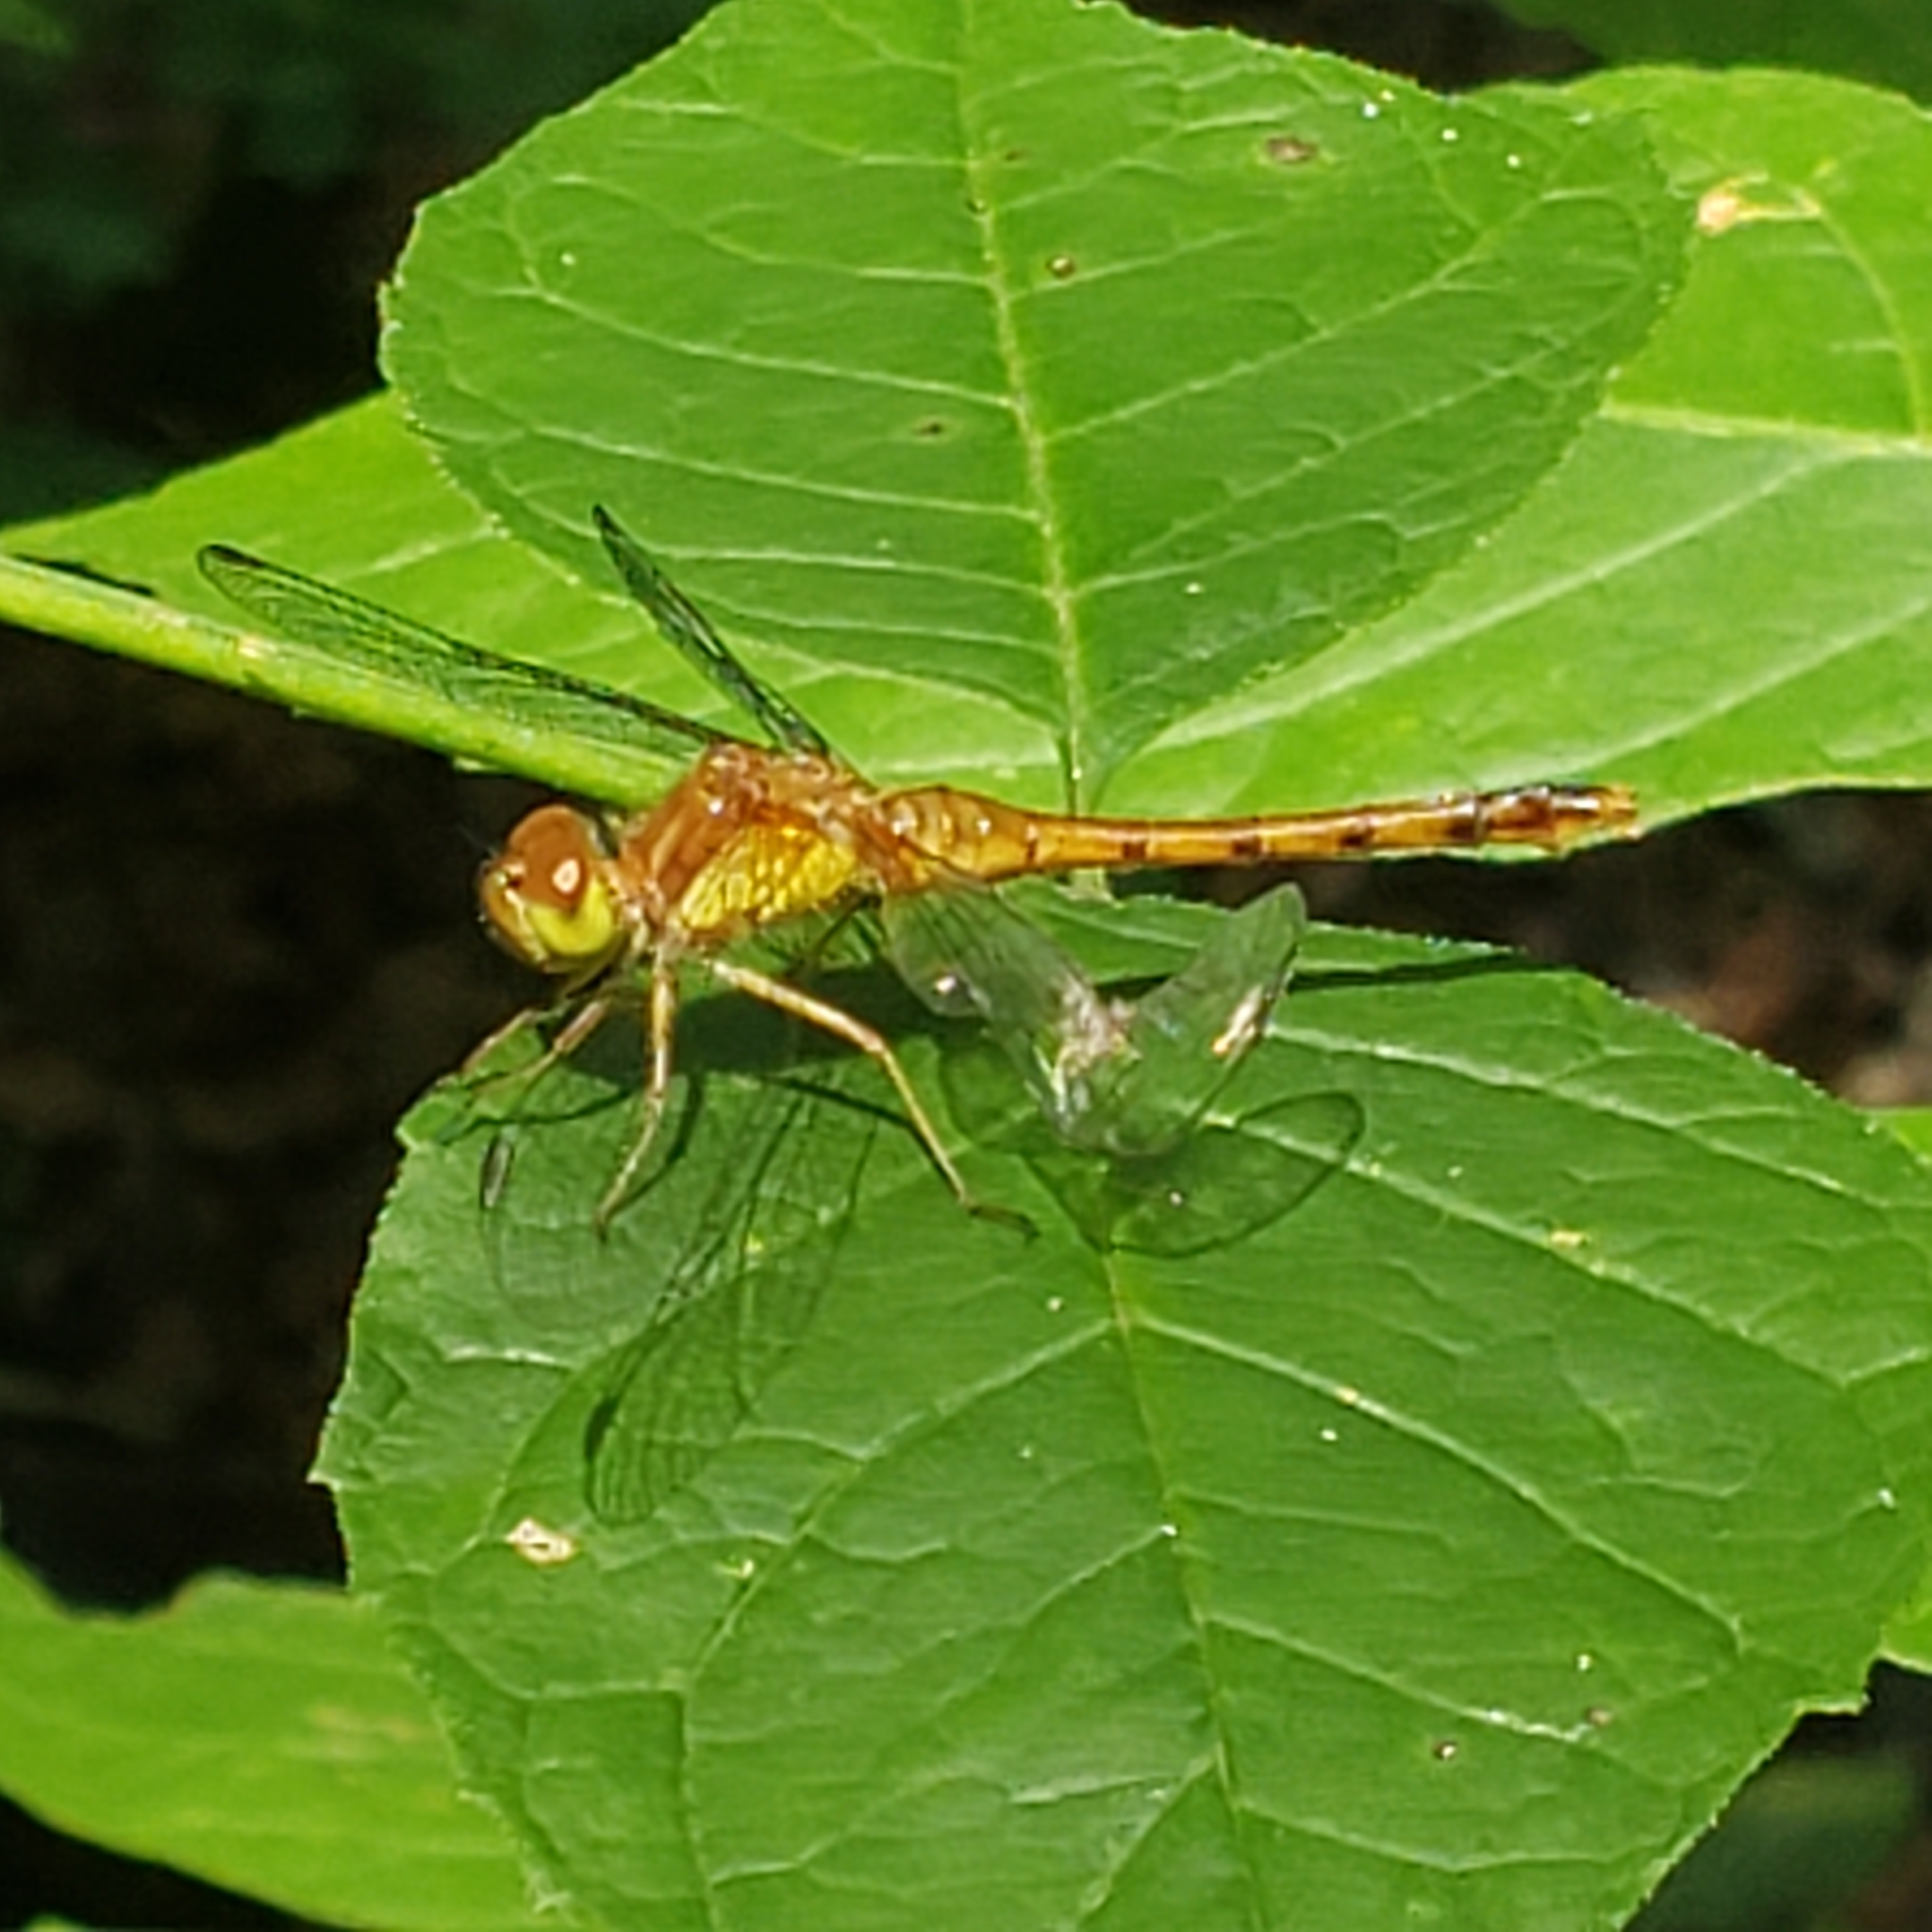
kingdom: Animalia
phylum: Arthropoda
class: Insecta
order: Odonata
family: Libellulidae
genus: Sympetrum
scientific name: Sympetrum vicinum
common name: Autumn meadowhawk
